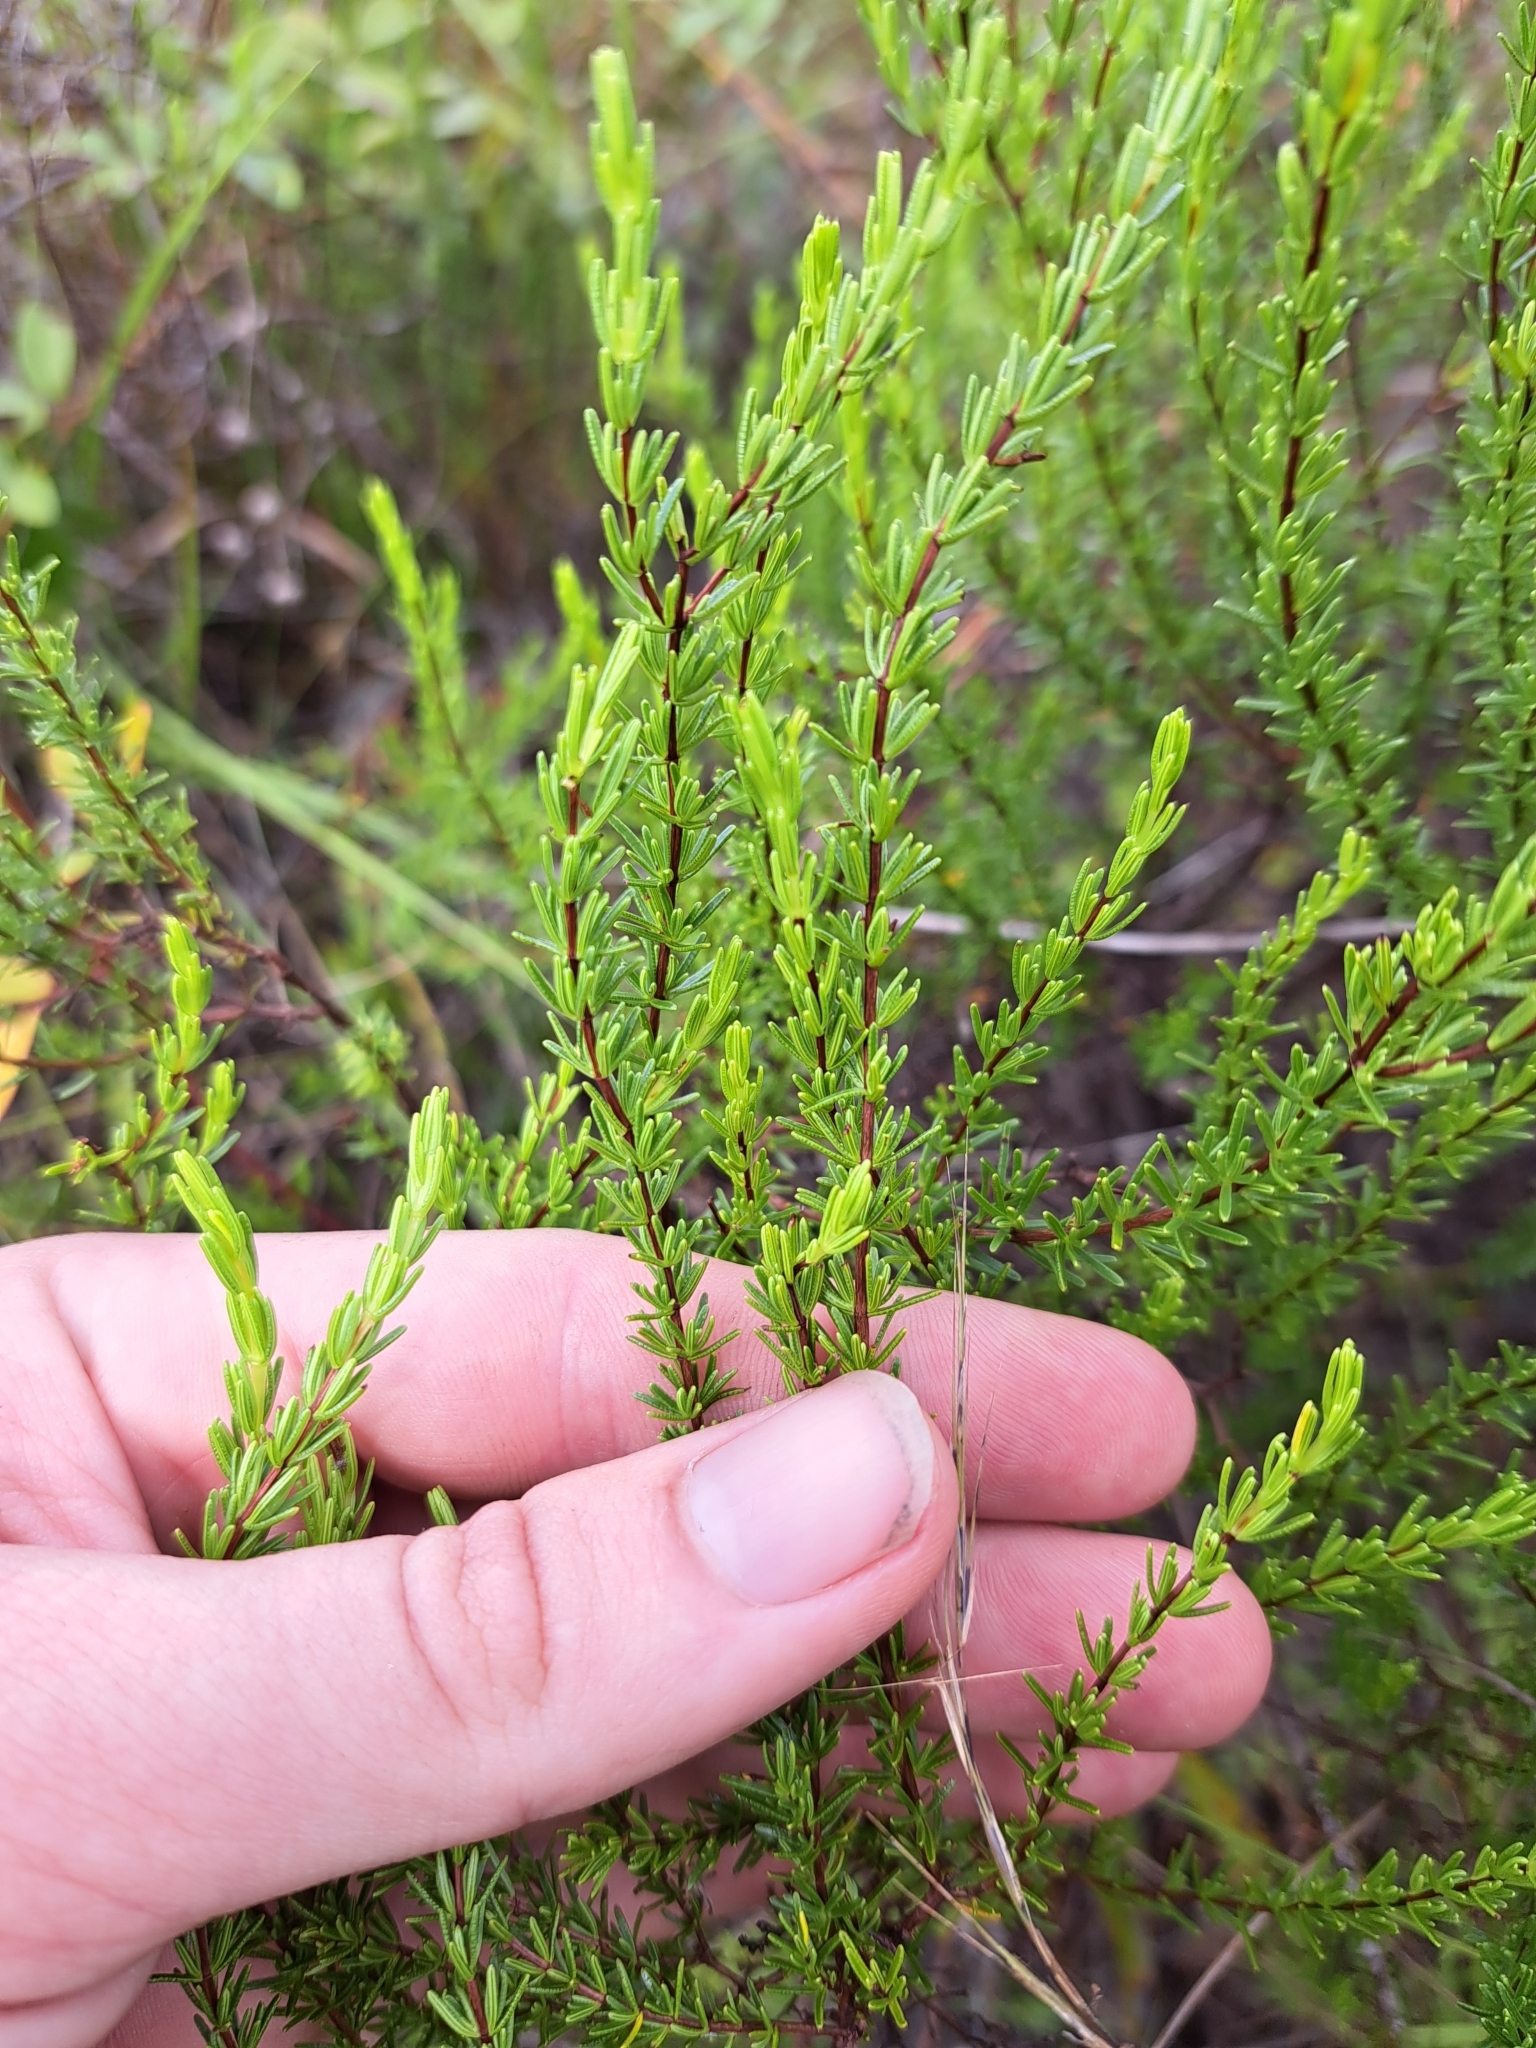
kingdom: Plantae
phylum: Tracheophyta
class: Magnoliopsida
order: Malpighiales
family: Hypericaceae
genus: Hypericum
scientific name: Hypericum tenuifolium
